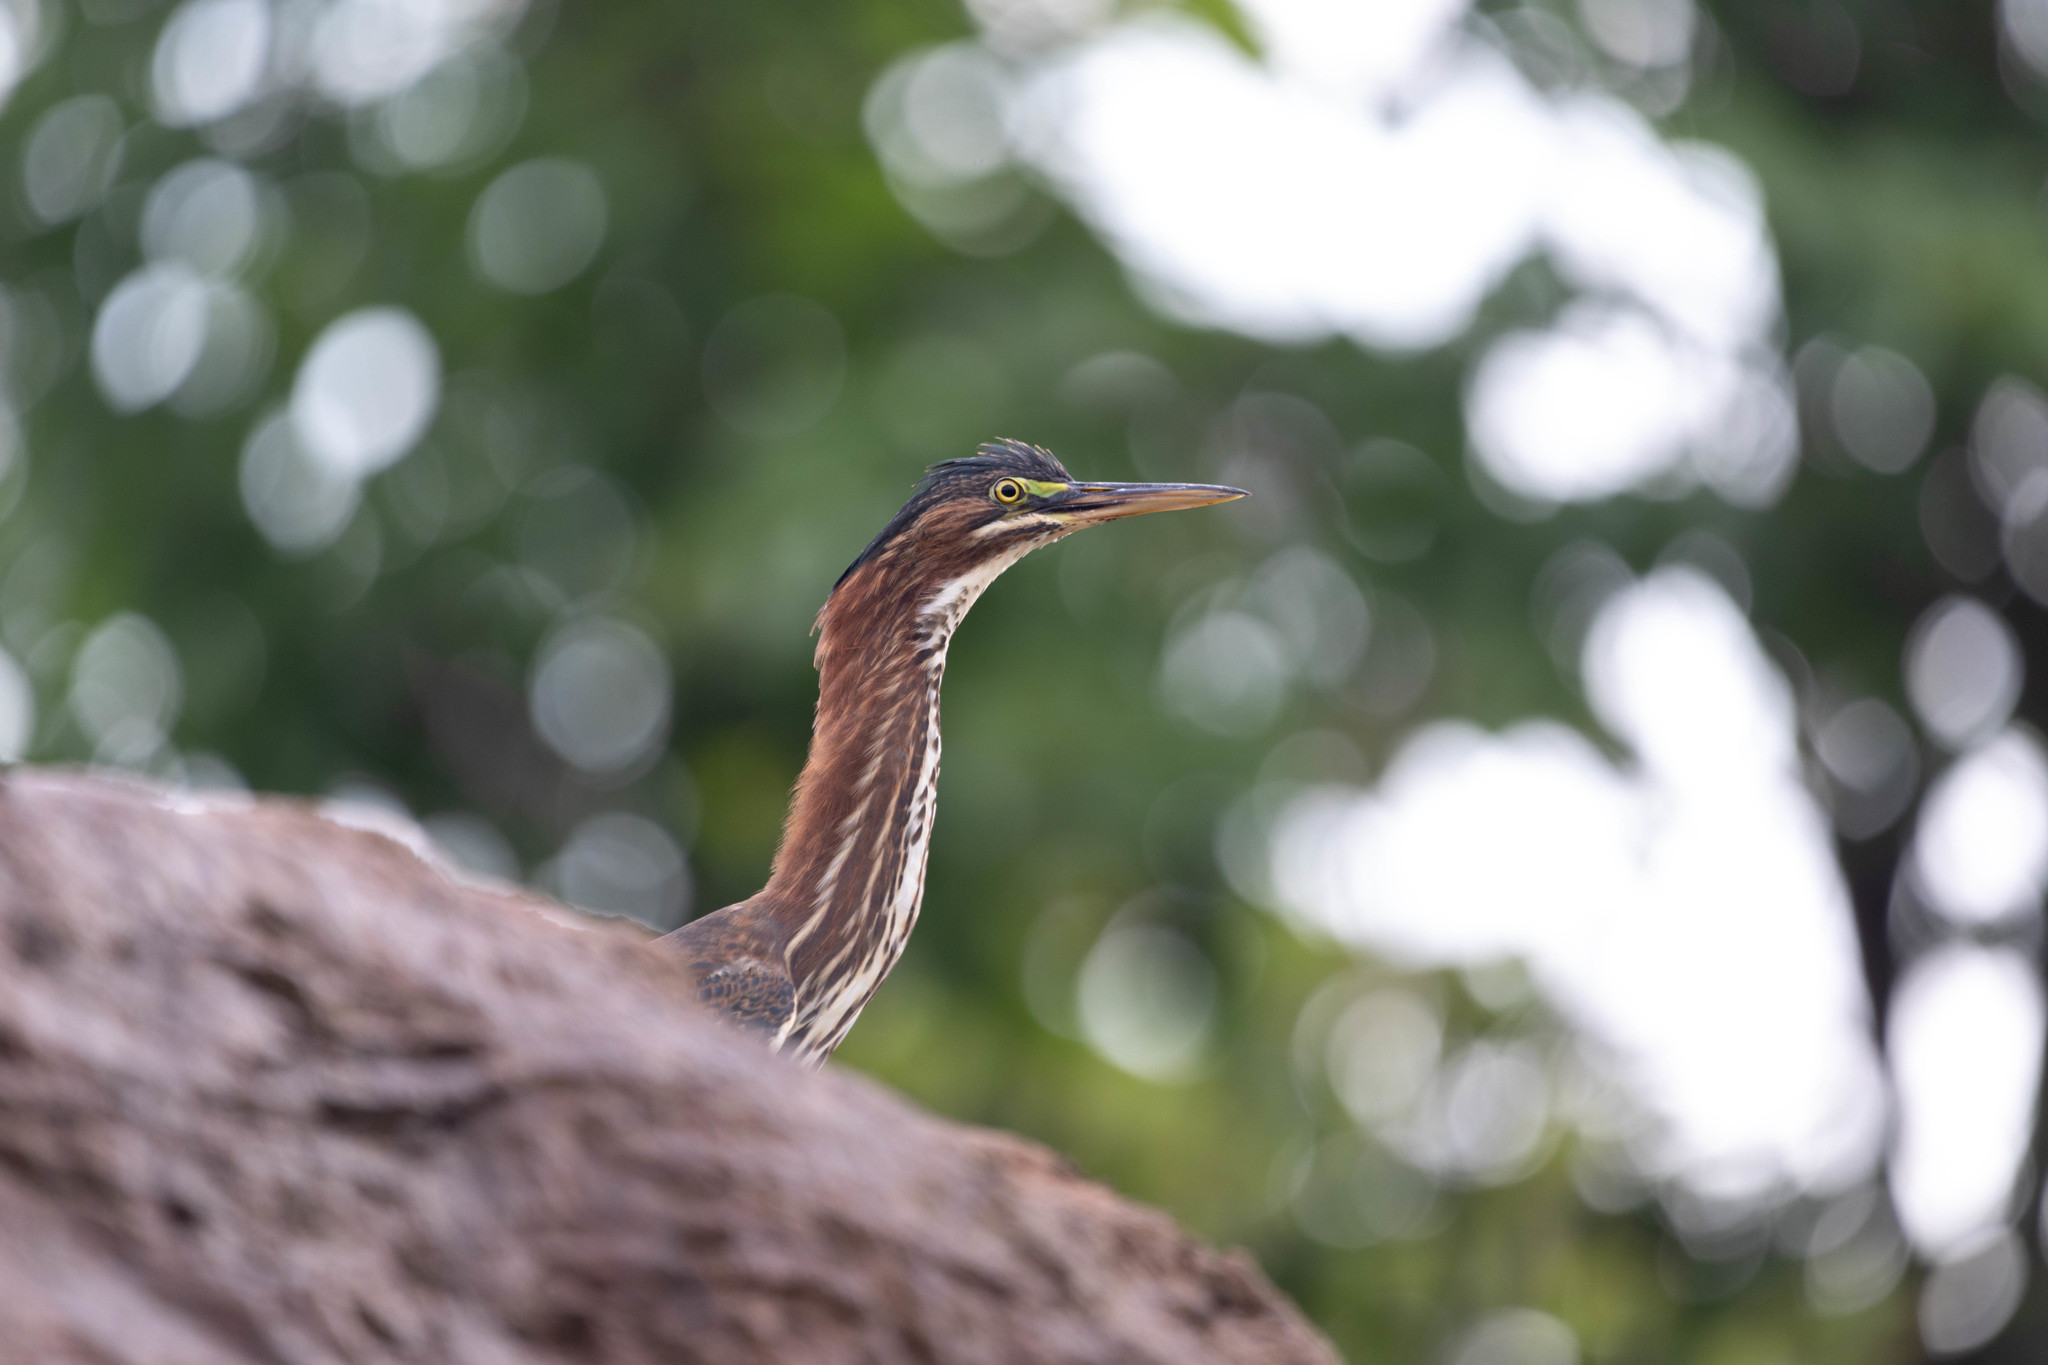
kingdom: Animalia
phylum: Chordata
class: Aves
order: Pelecaniformes
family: Ardeidae
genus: Butorides
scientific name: Butorides virescens
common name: Green heron
